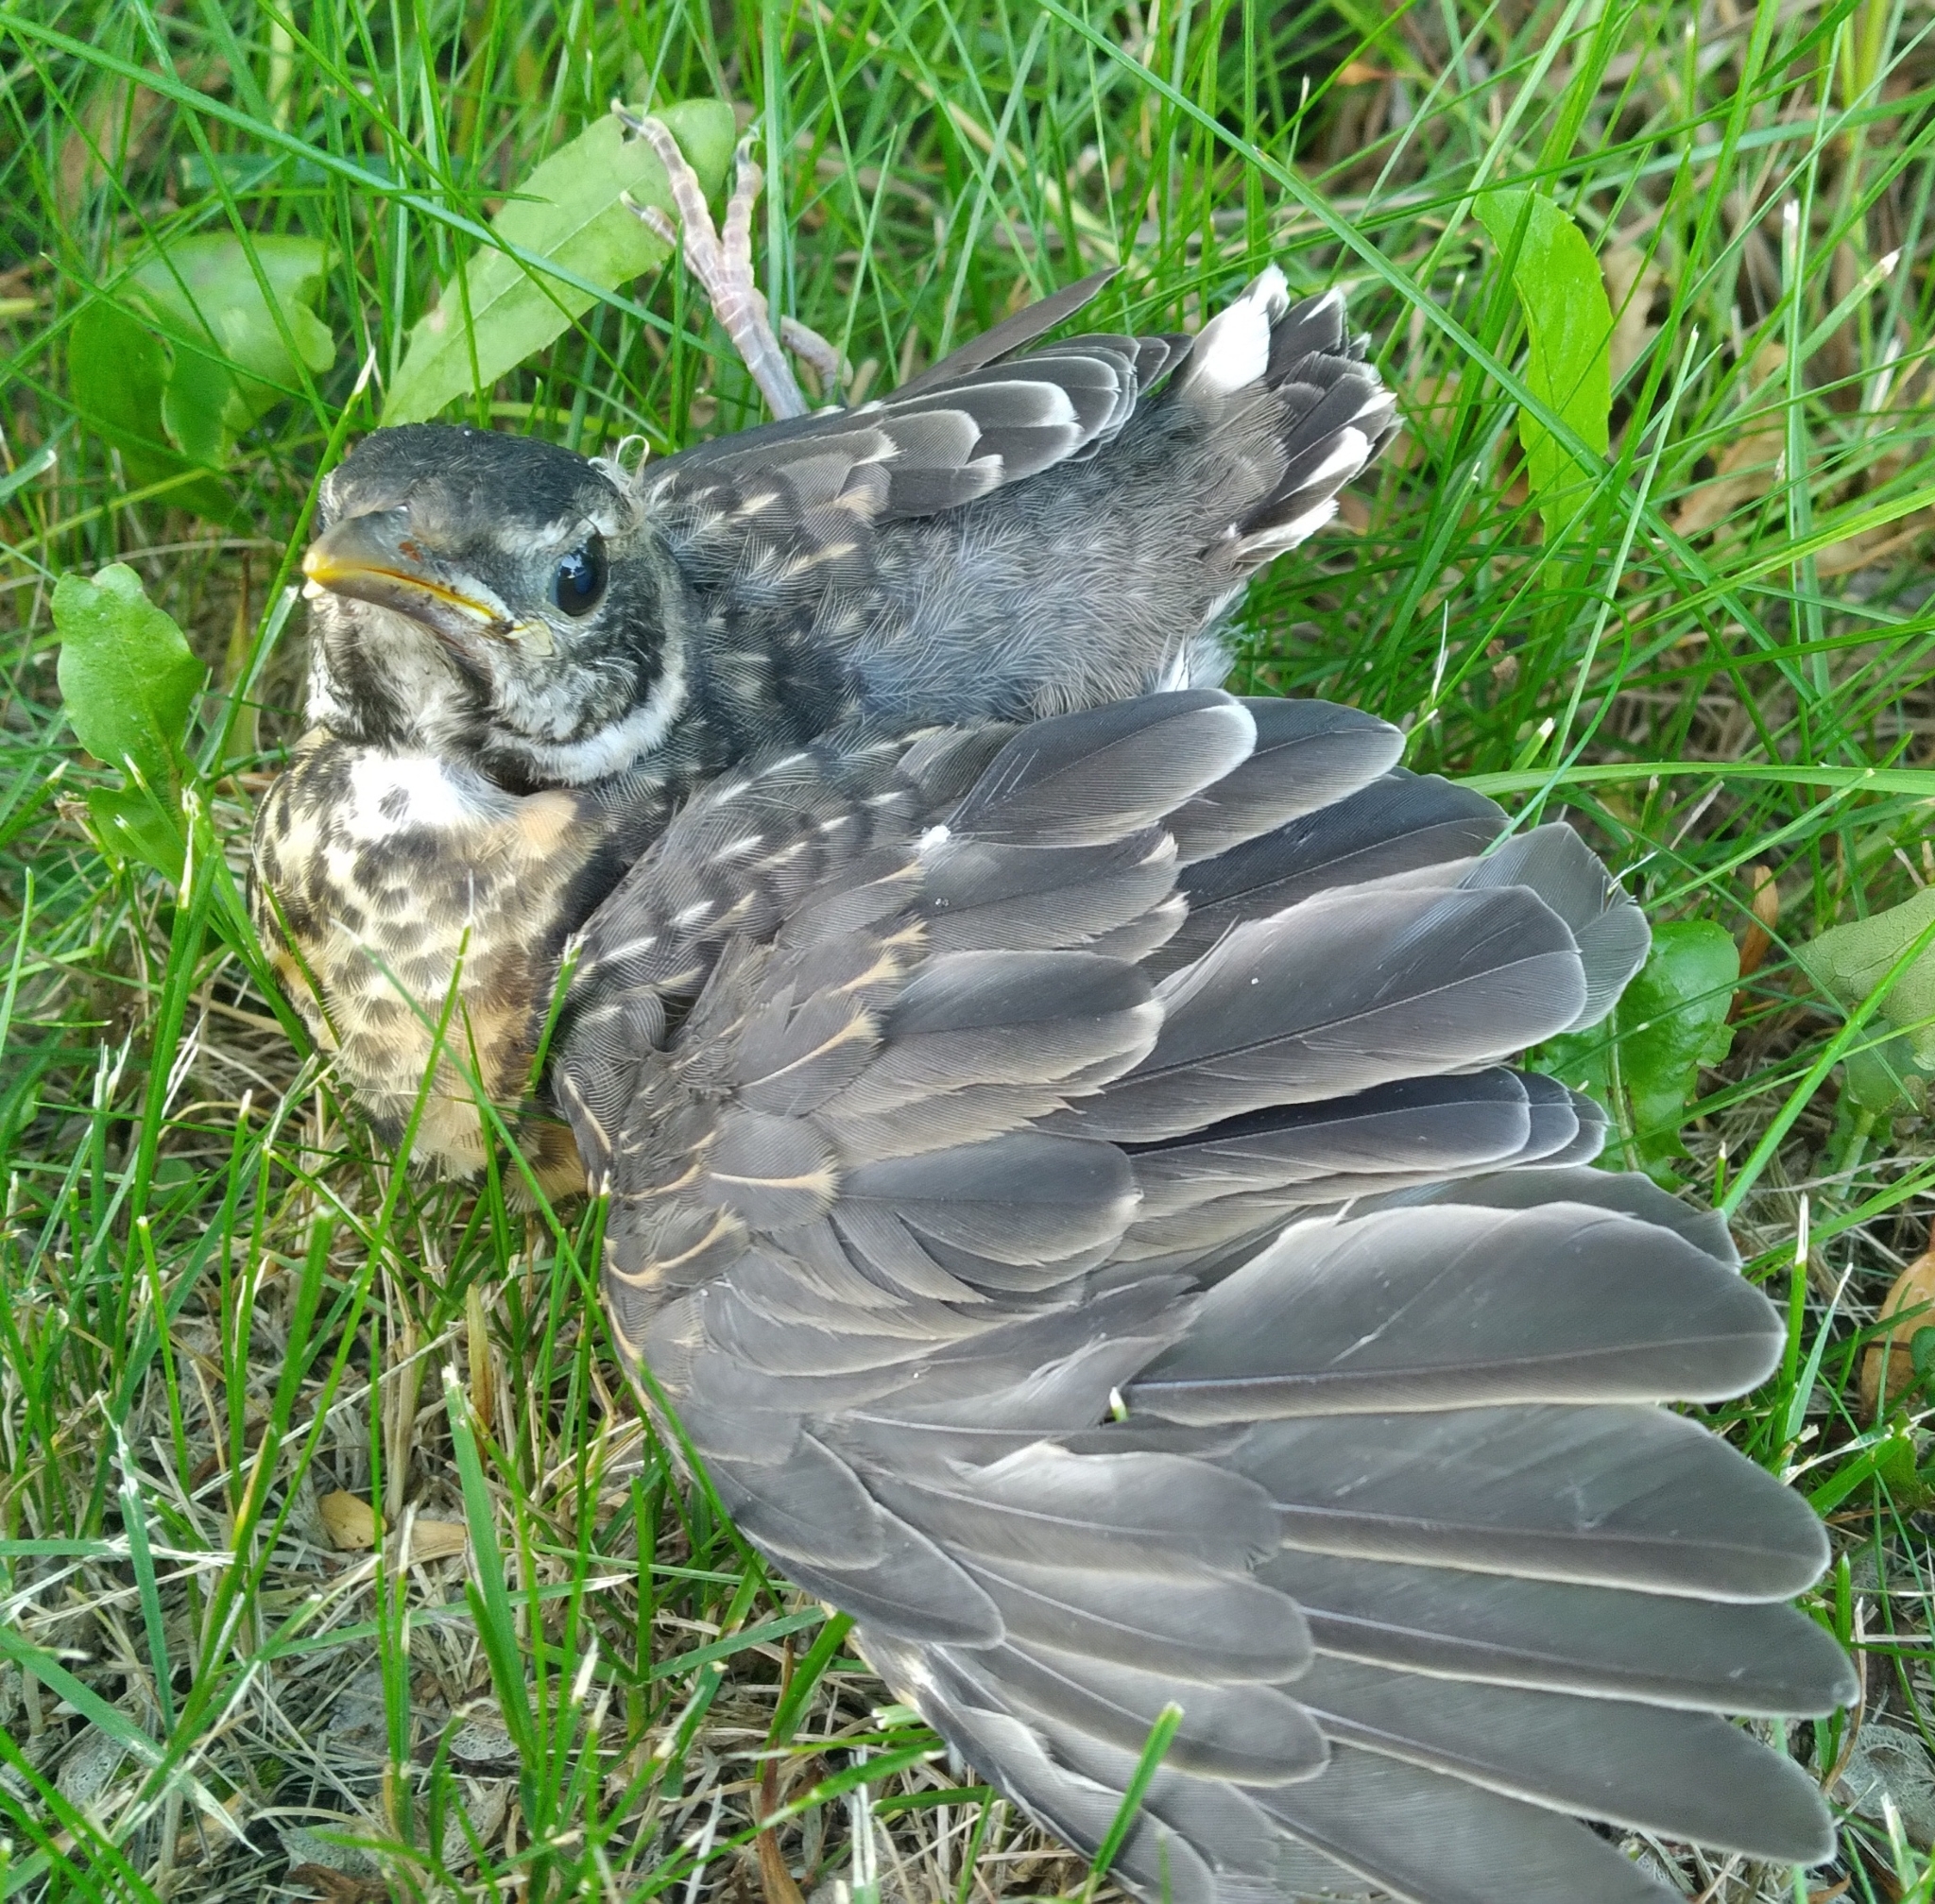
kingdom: Animalia
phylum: Chordata
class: Aves
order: Passeriformes
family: Turdidae
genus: Turdus
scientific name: Turdus migratorius
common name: American robin
